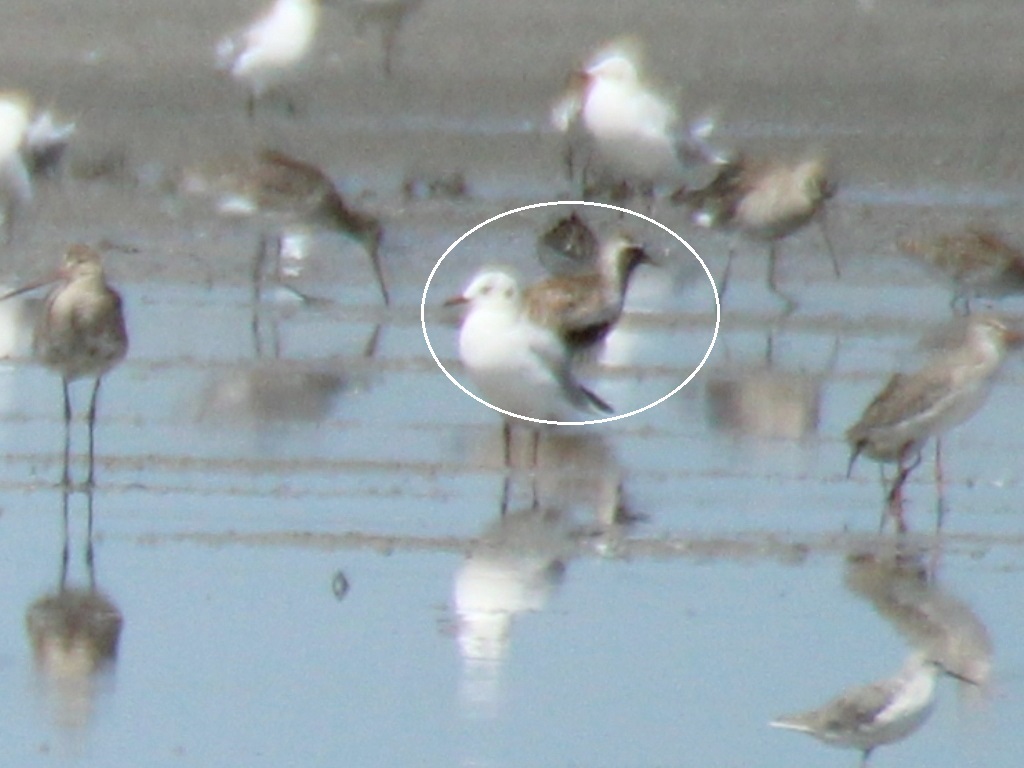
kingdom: Animalia
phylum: Chordata
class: Aves
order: Charadriiformes
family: Charadriidae
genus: Pluvialis
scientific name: Pluvialis apricaria
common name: European golden plover
